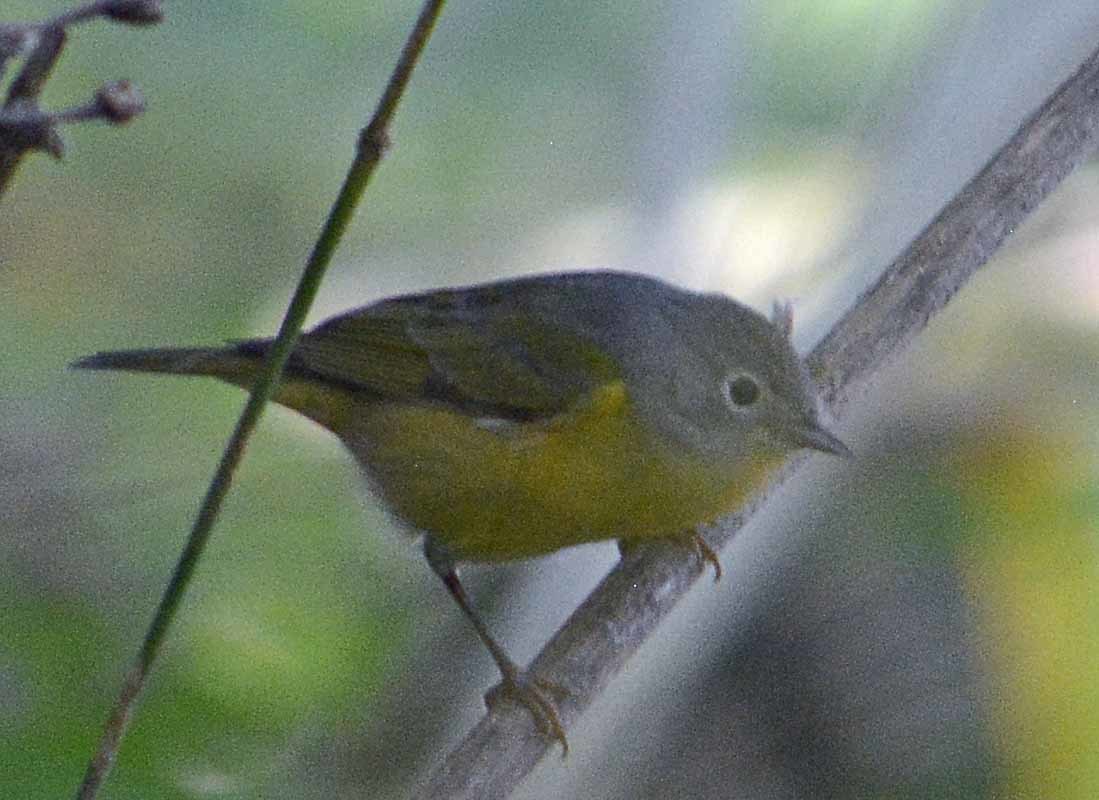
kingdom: Animalia
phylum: Chordata
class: Aves
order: Passeriformes
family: Parulidae
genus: Leiothlypis
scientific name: Leiothlypis ruficapilla
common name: Nashville warbler
